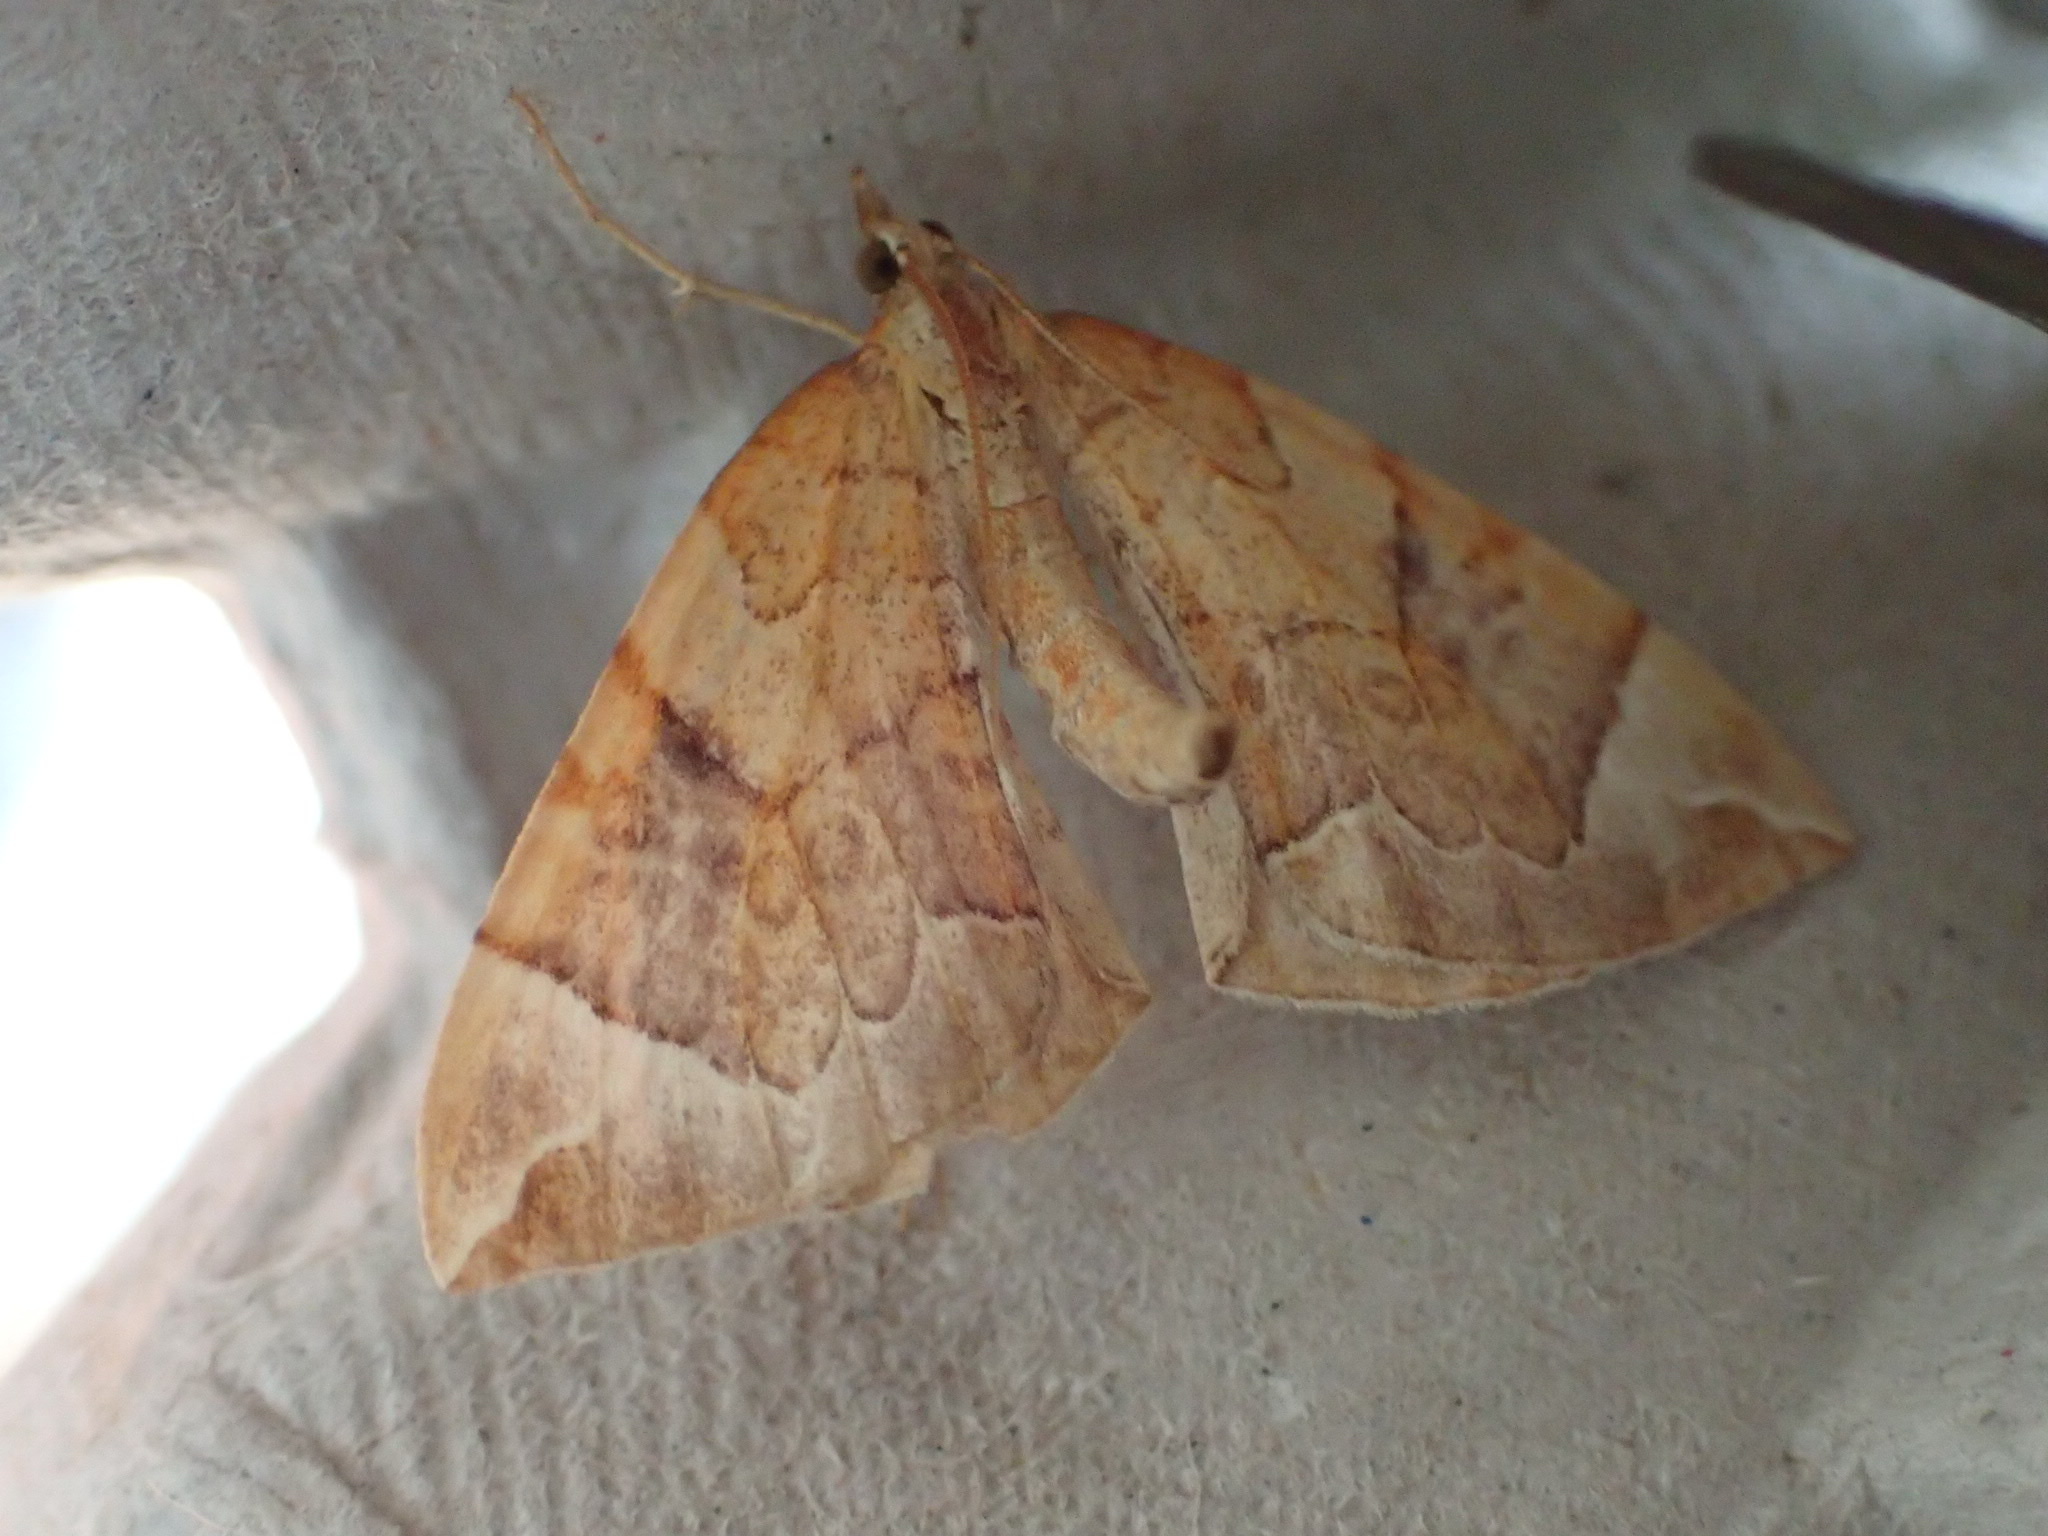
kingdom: Animalia
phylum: Arthropoda
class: Insecta
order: Lepidoptera
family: Geometridae
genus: Eulithis
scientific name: Eulithis testata
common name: Chevron
